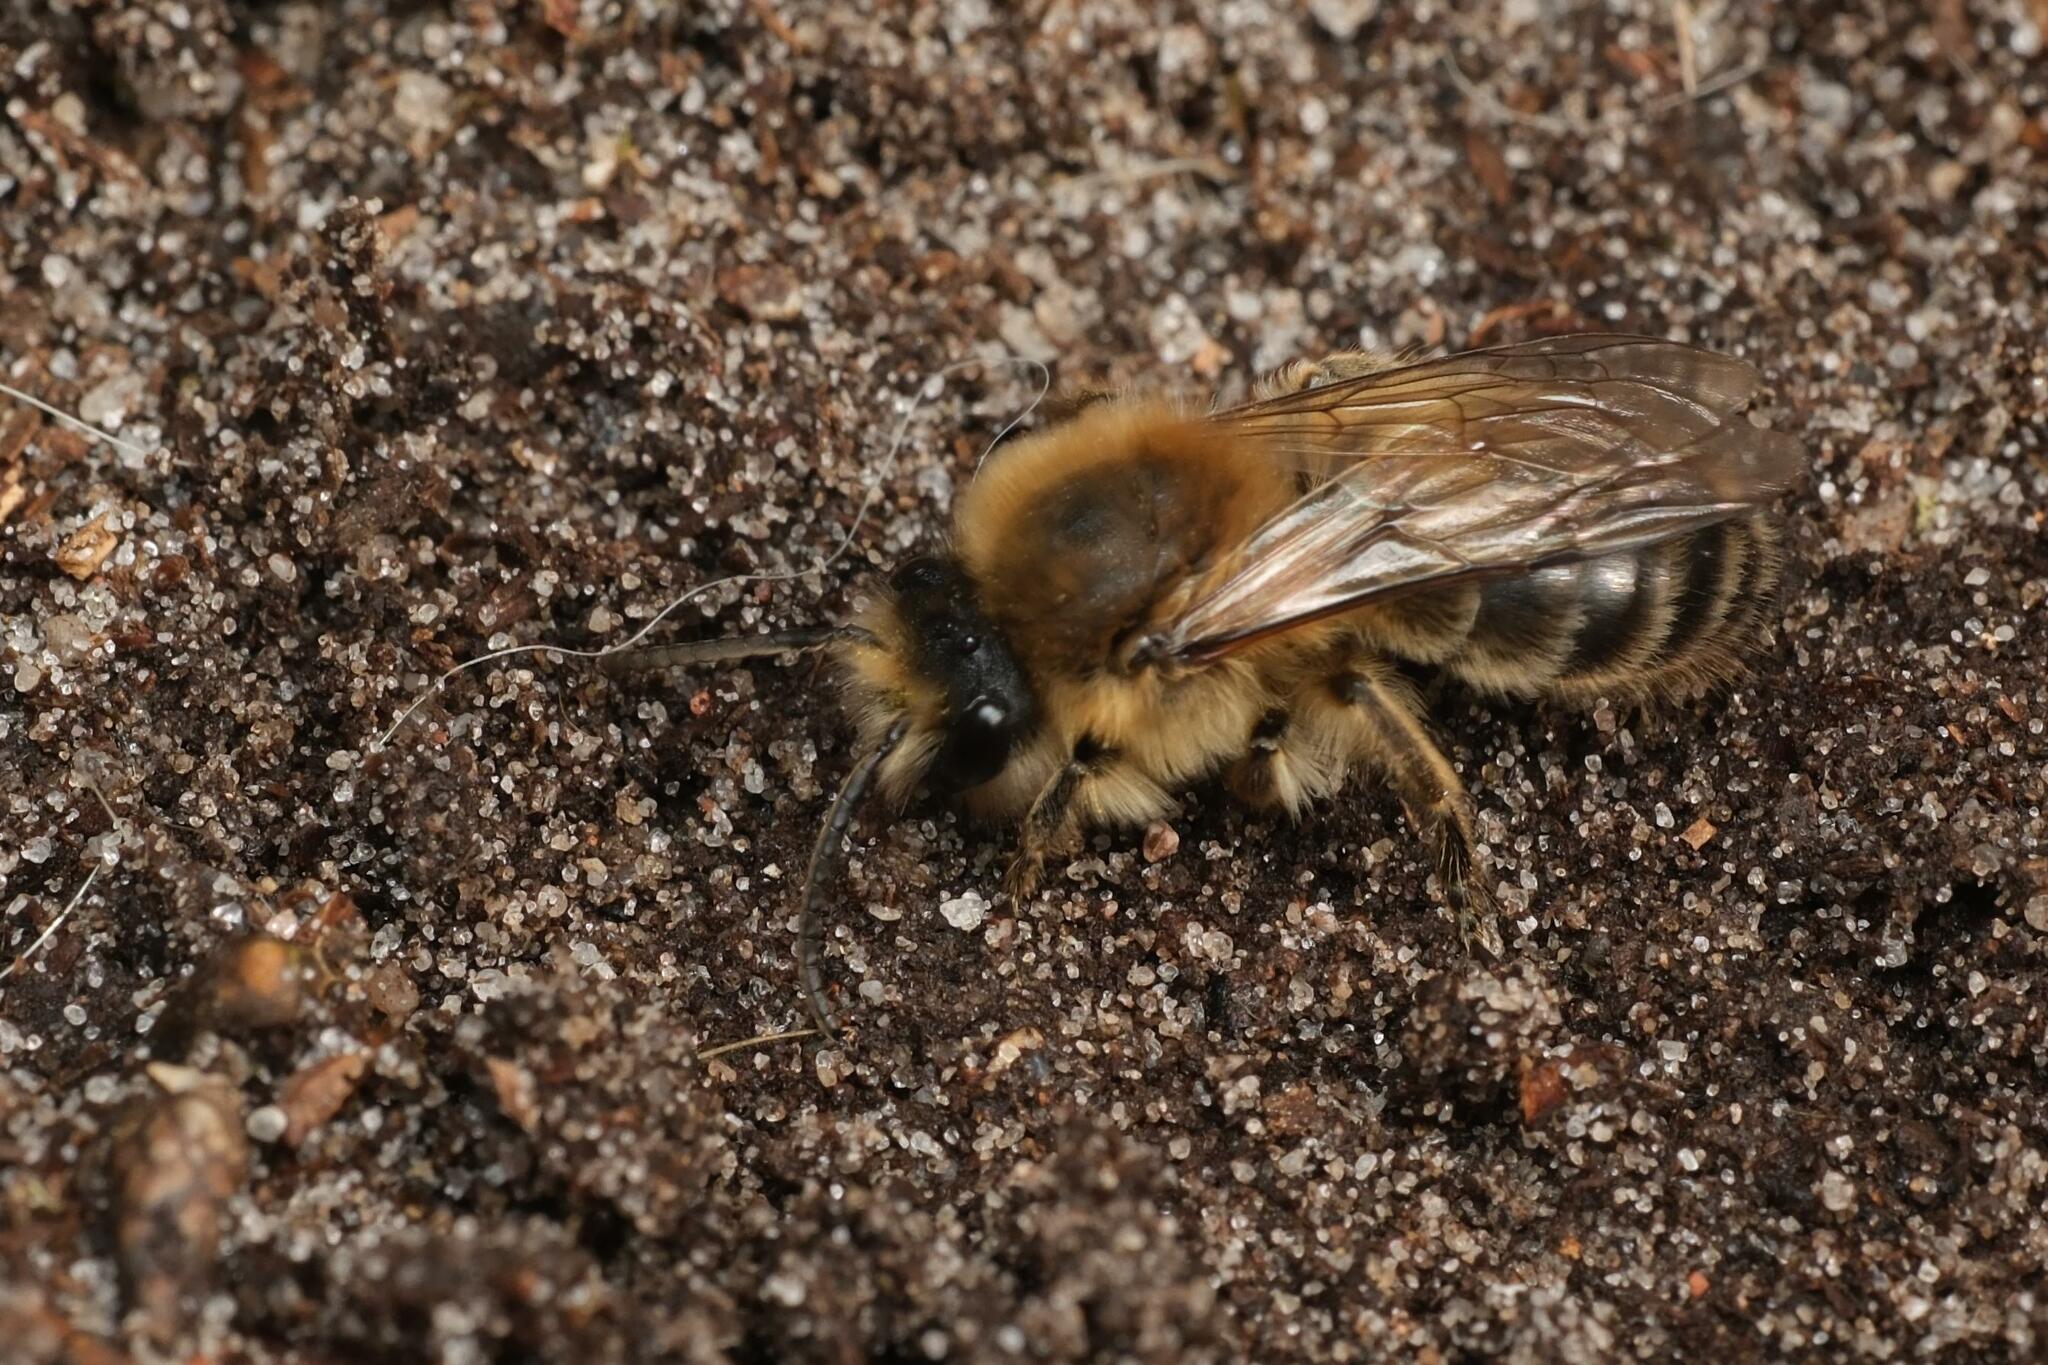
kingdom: Animalia
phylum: Arthropoda
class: Insecta
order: Hymenoptera
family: Colletidae
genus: Colletes
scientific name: Colletes cunicularius
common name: Early colletes
